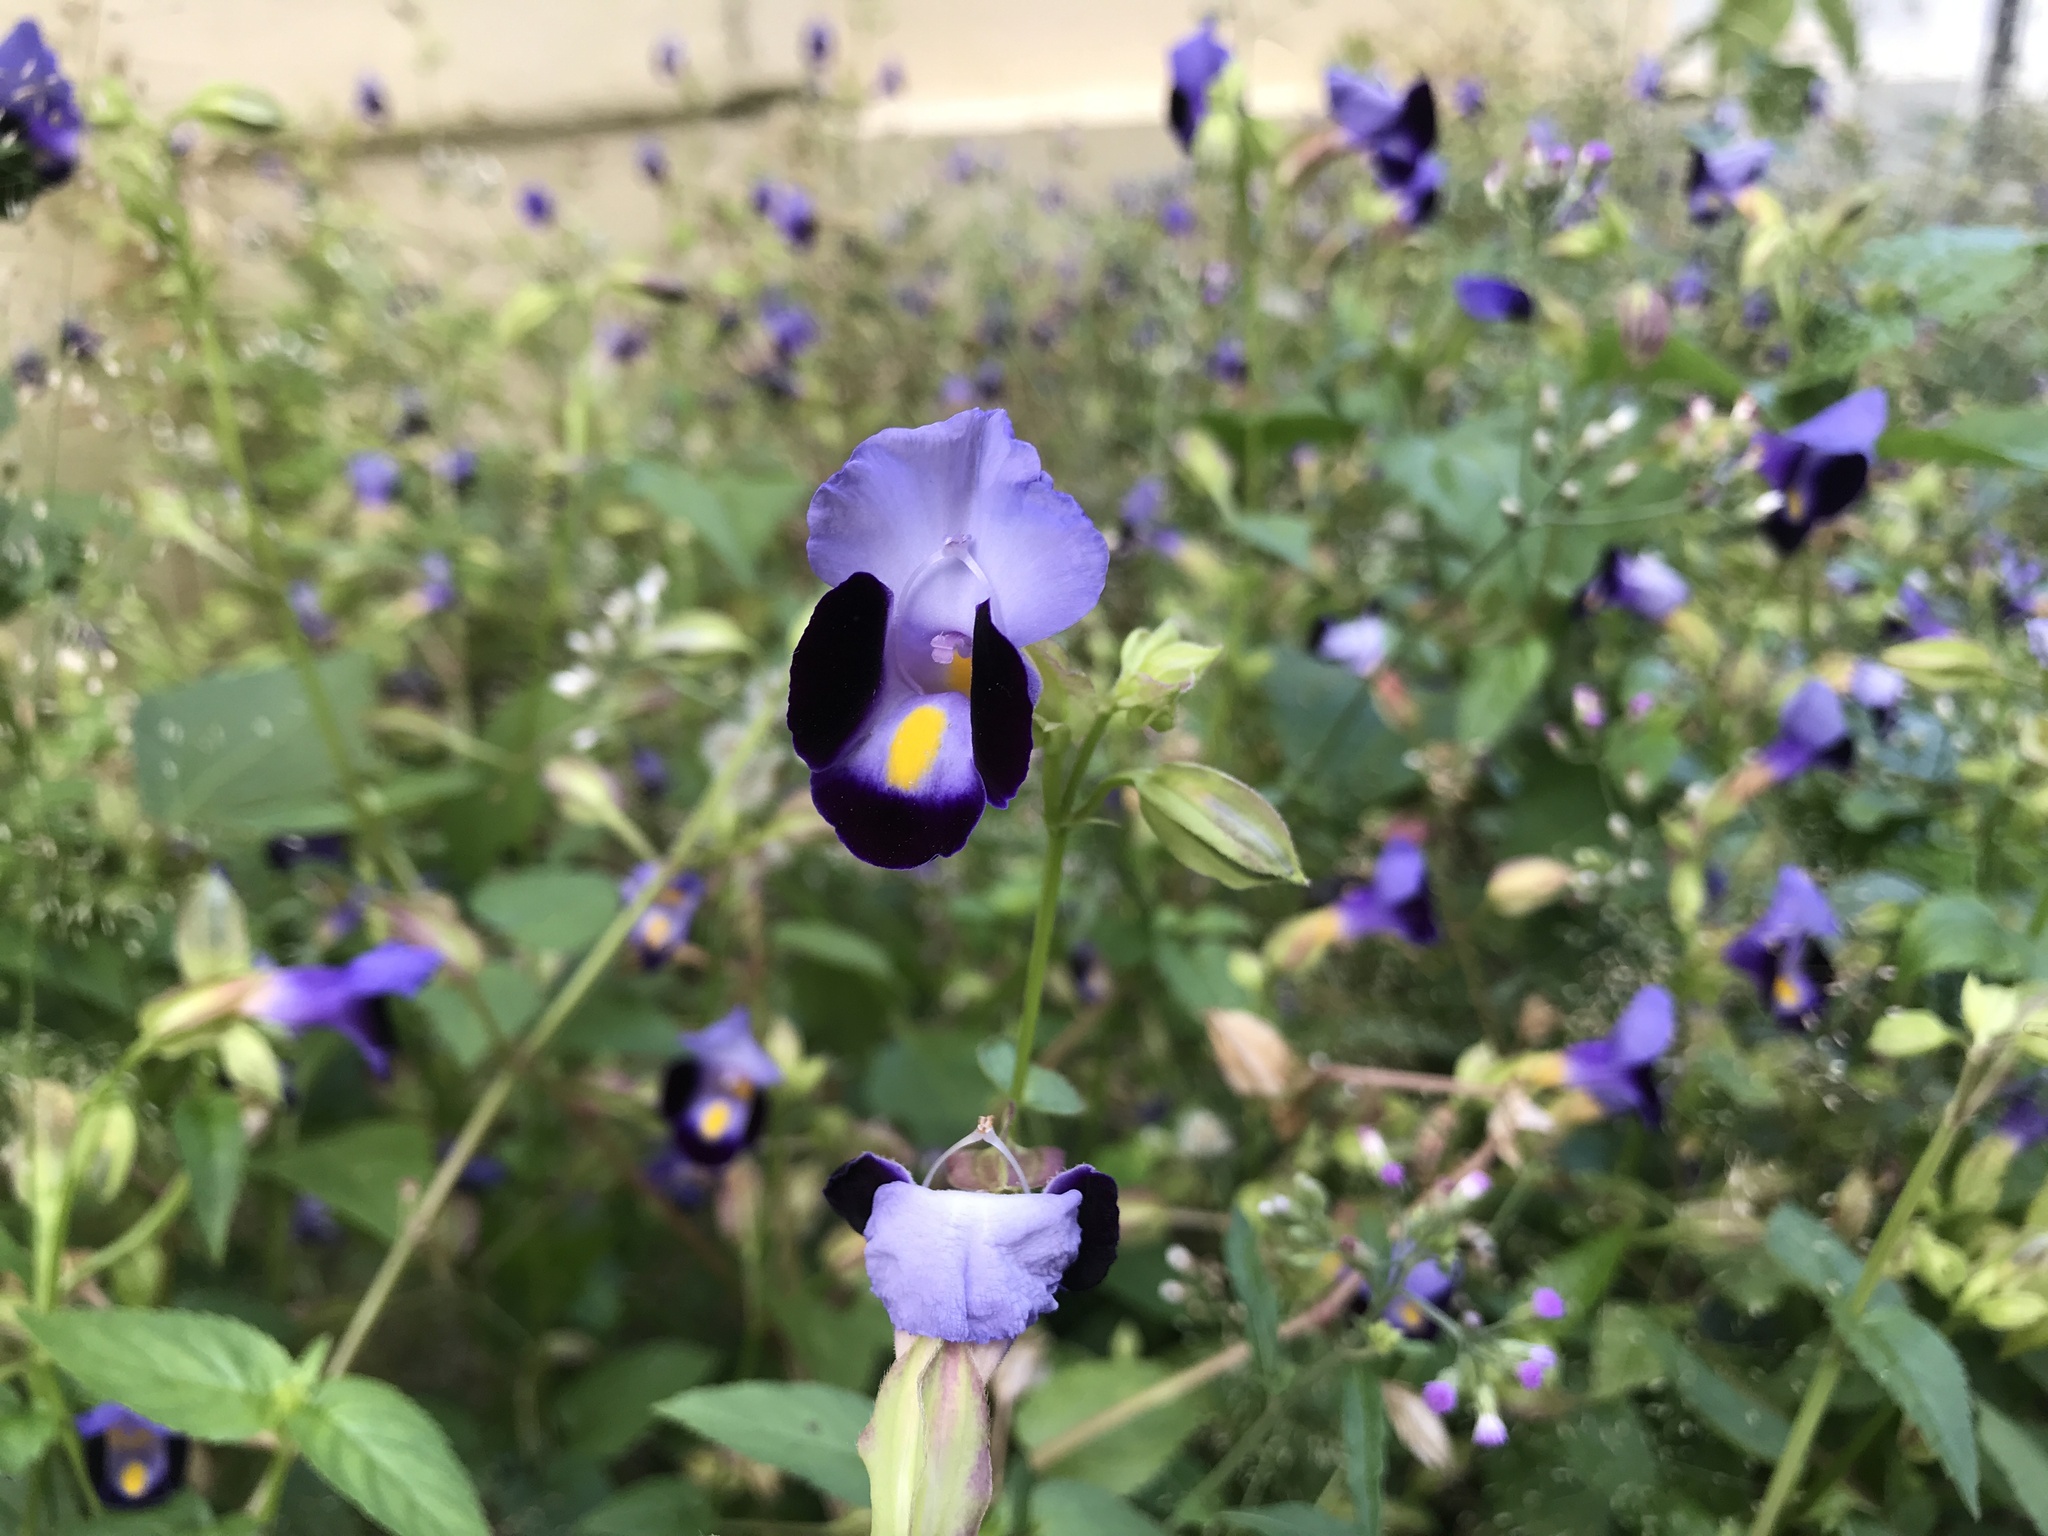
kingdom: Plantae
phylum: Tracheophyta
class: Magnoliopsida
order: Lamiales
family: Linderniaceae
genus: Torenia
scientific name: Torenia fournieri
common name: Bluewings
